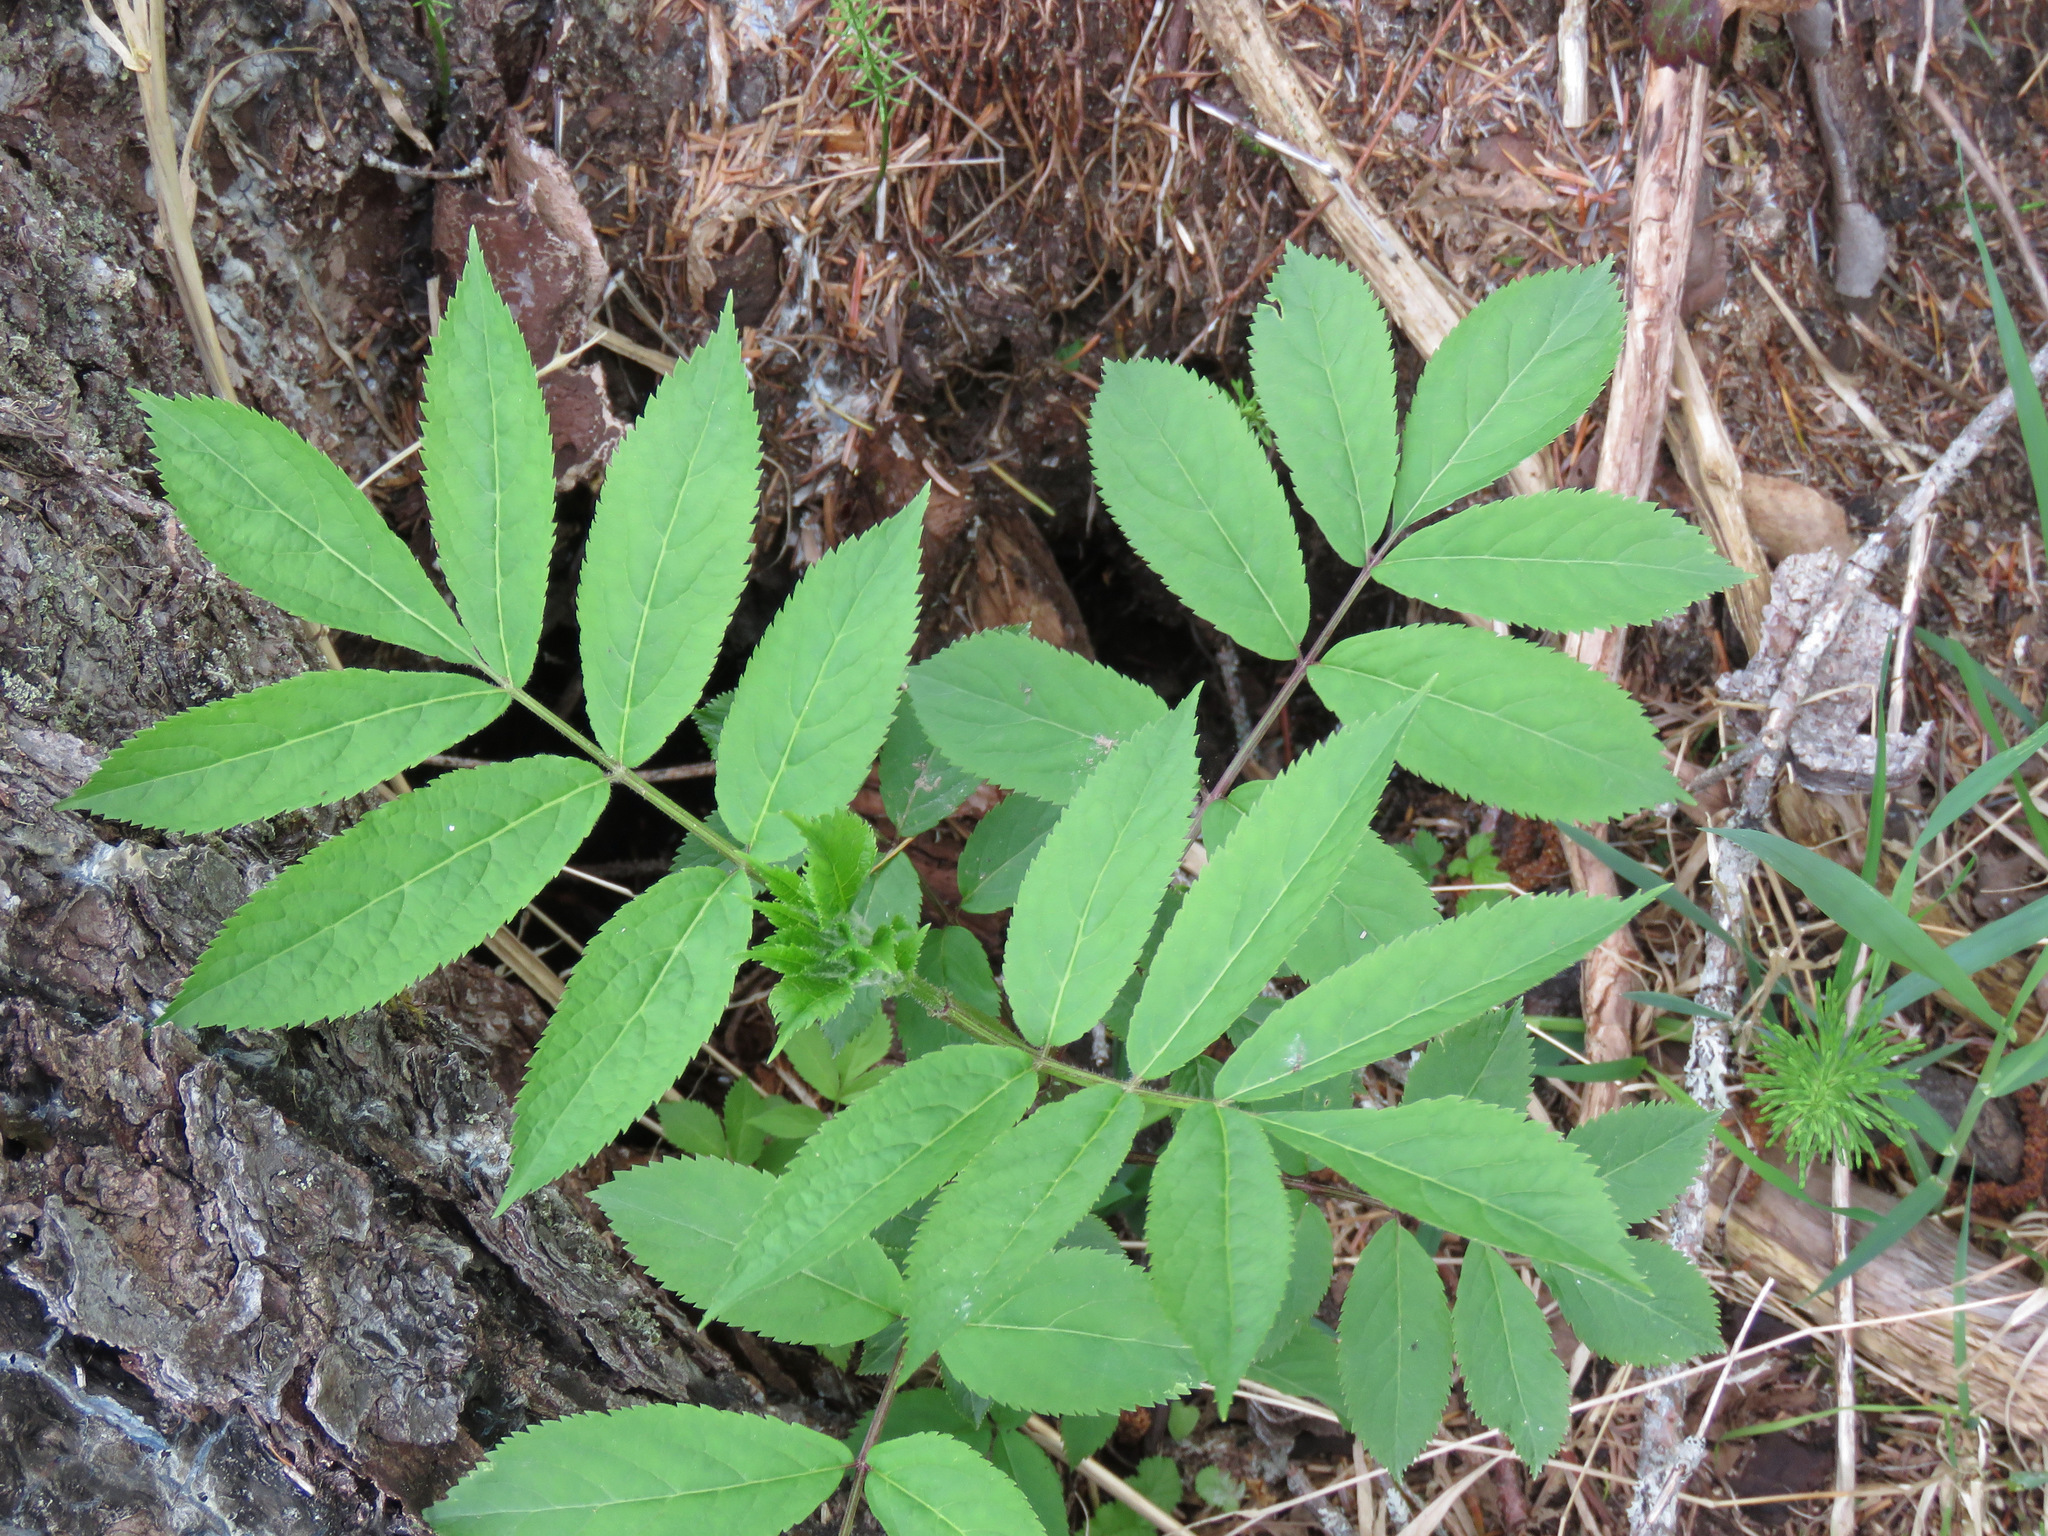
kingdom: Plantae
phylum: Tracheophyta
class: Magnoliopsida
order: Dipsacales
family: Viburnaceae
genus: Sambucus
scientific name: Sambucus racemosa
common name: Red-berried elder
